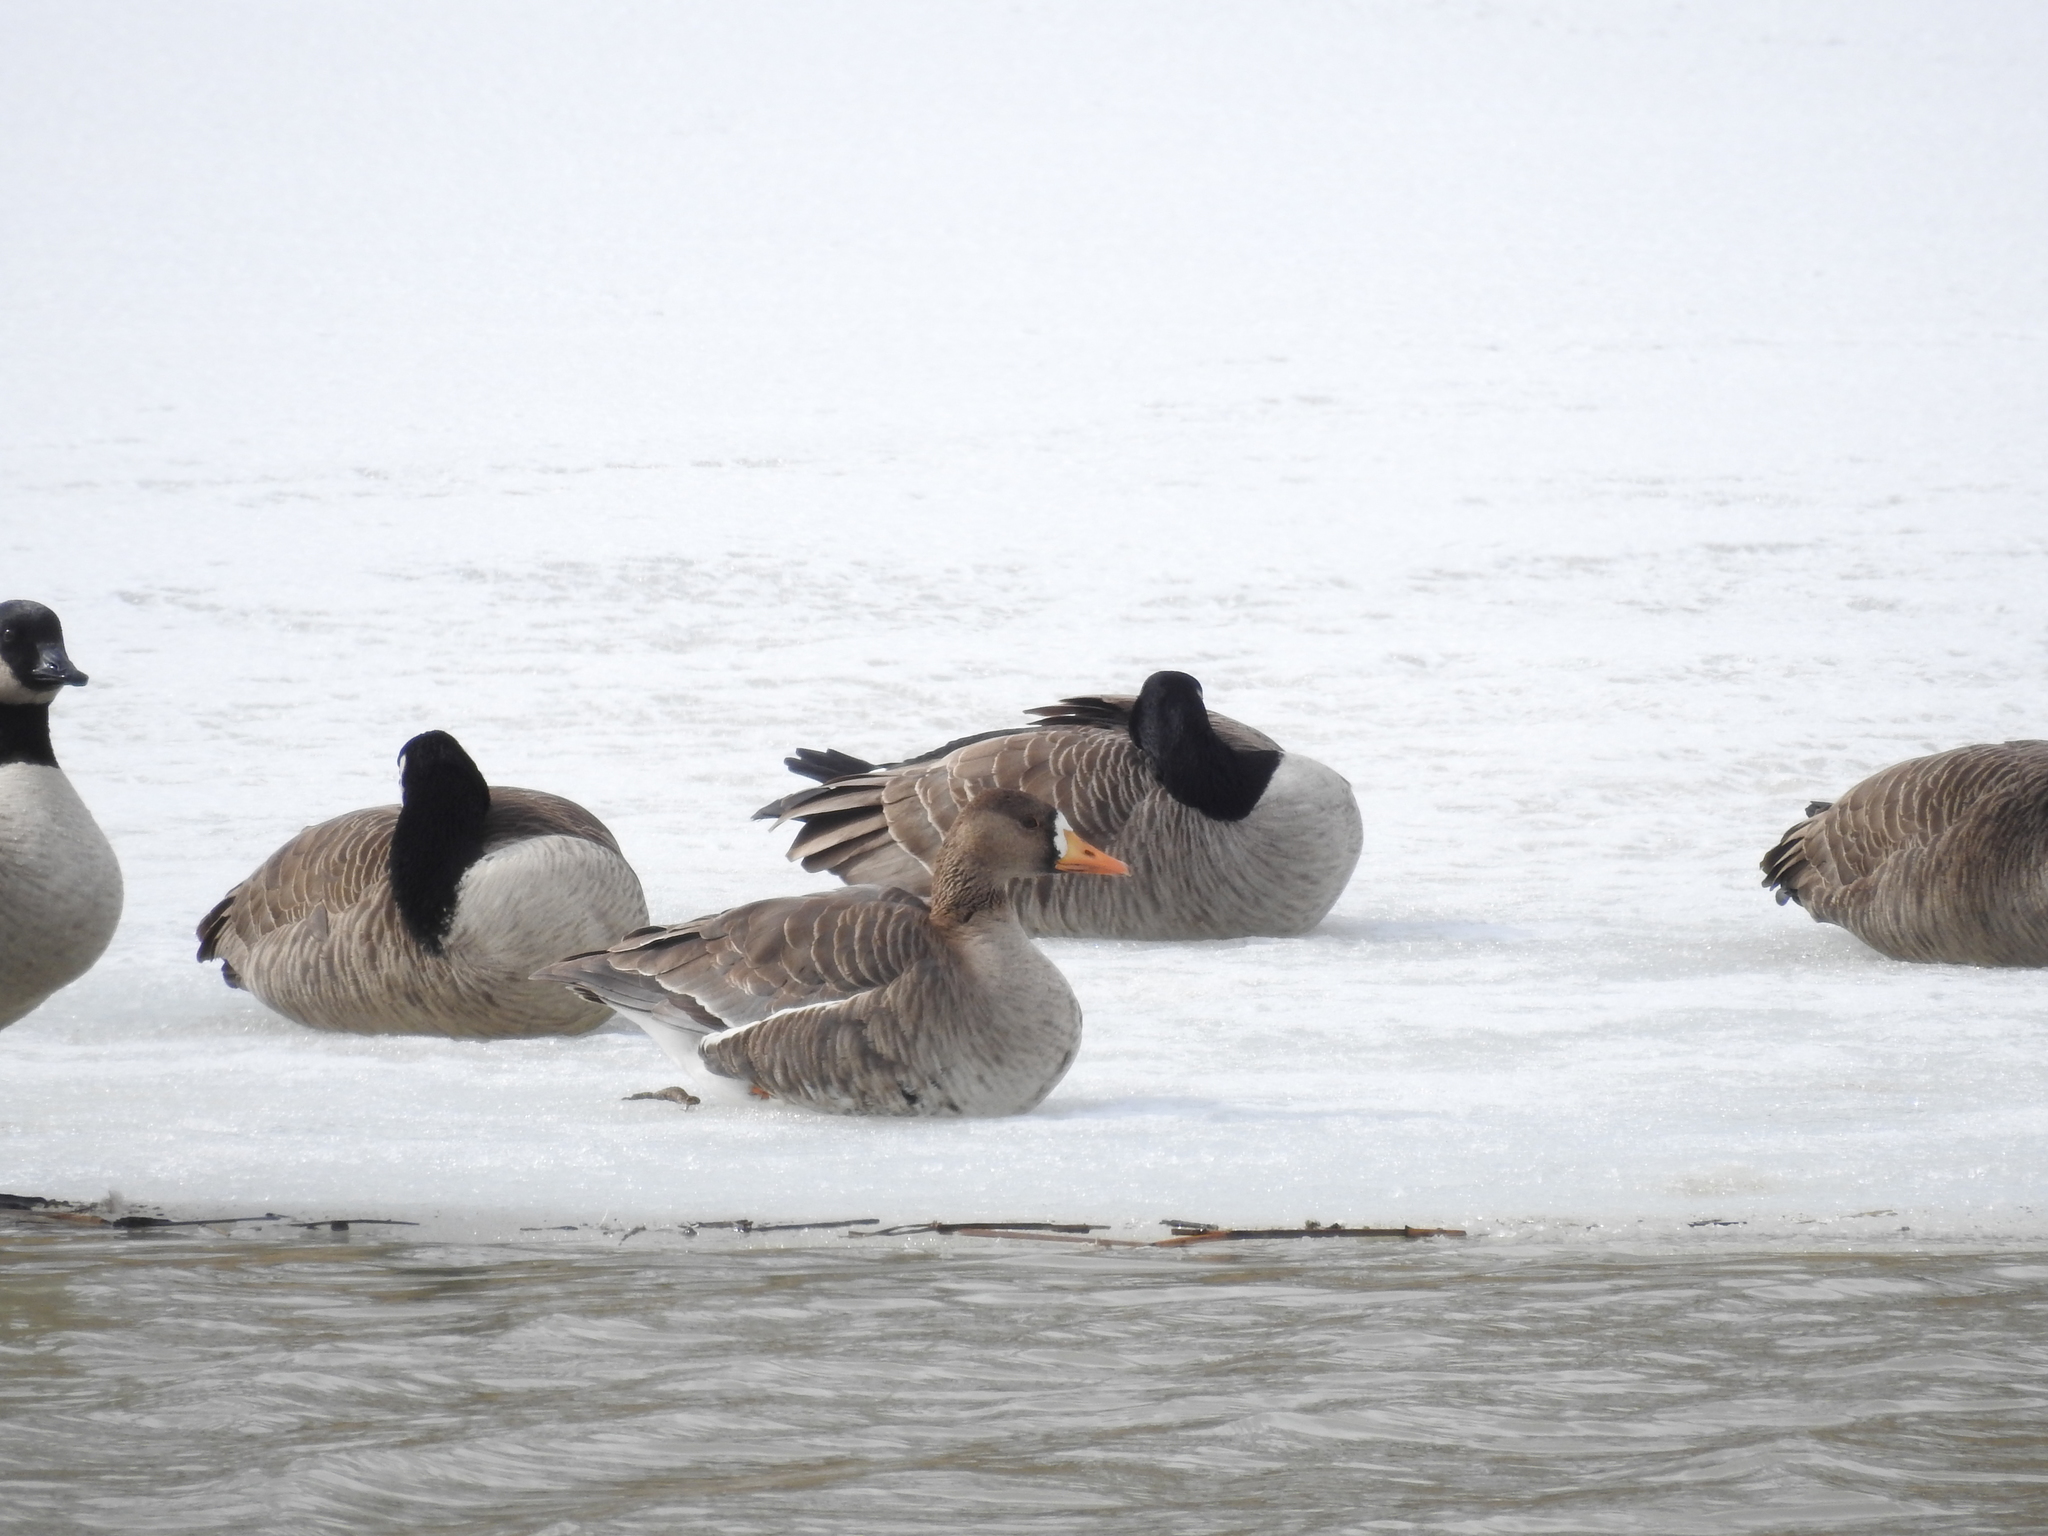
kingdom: Animalia
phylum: Chordata
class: Aves
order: Anseriformes
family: Anatidae
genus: Anser
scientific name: Anser albifrons
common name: Greater white-fronted goose
